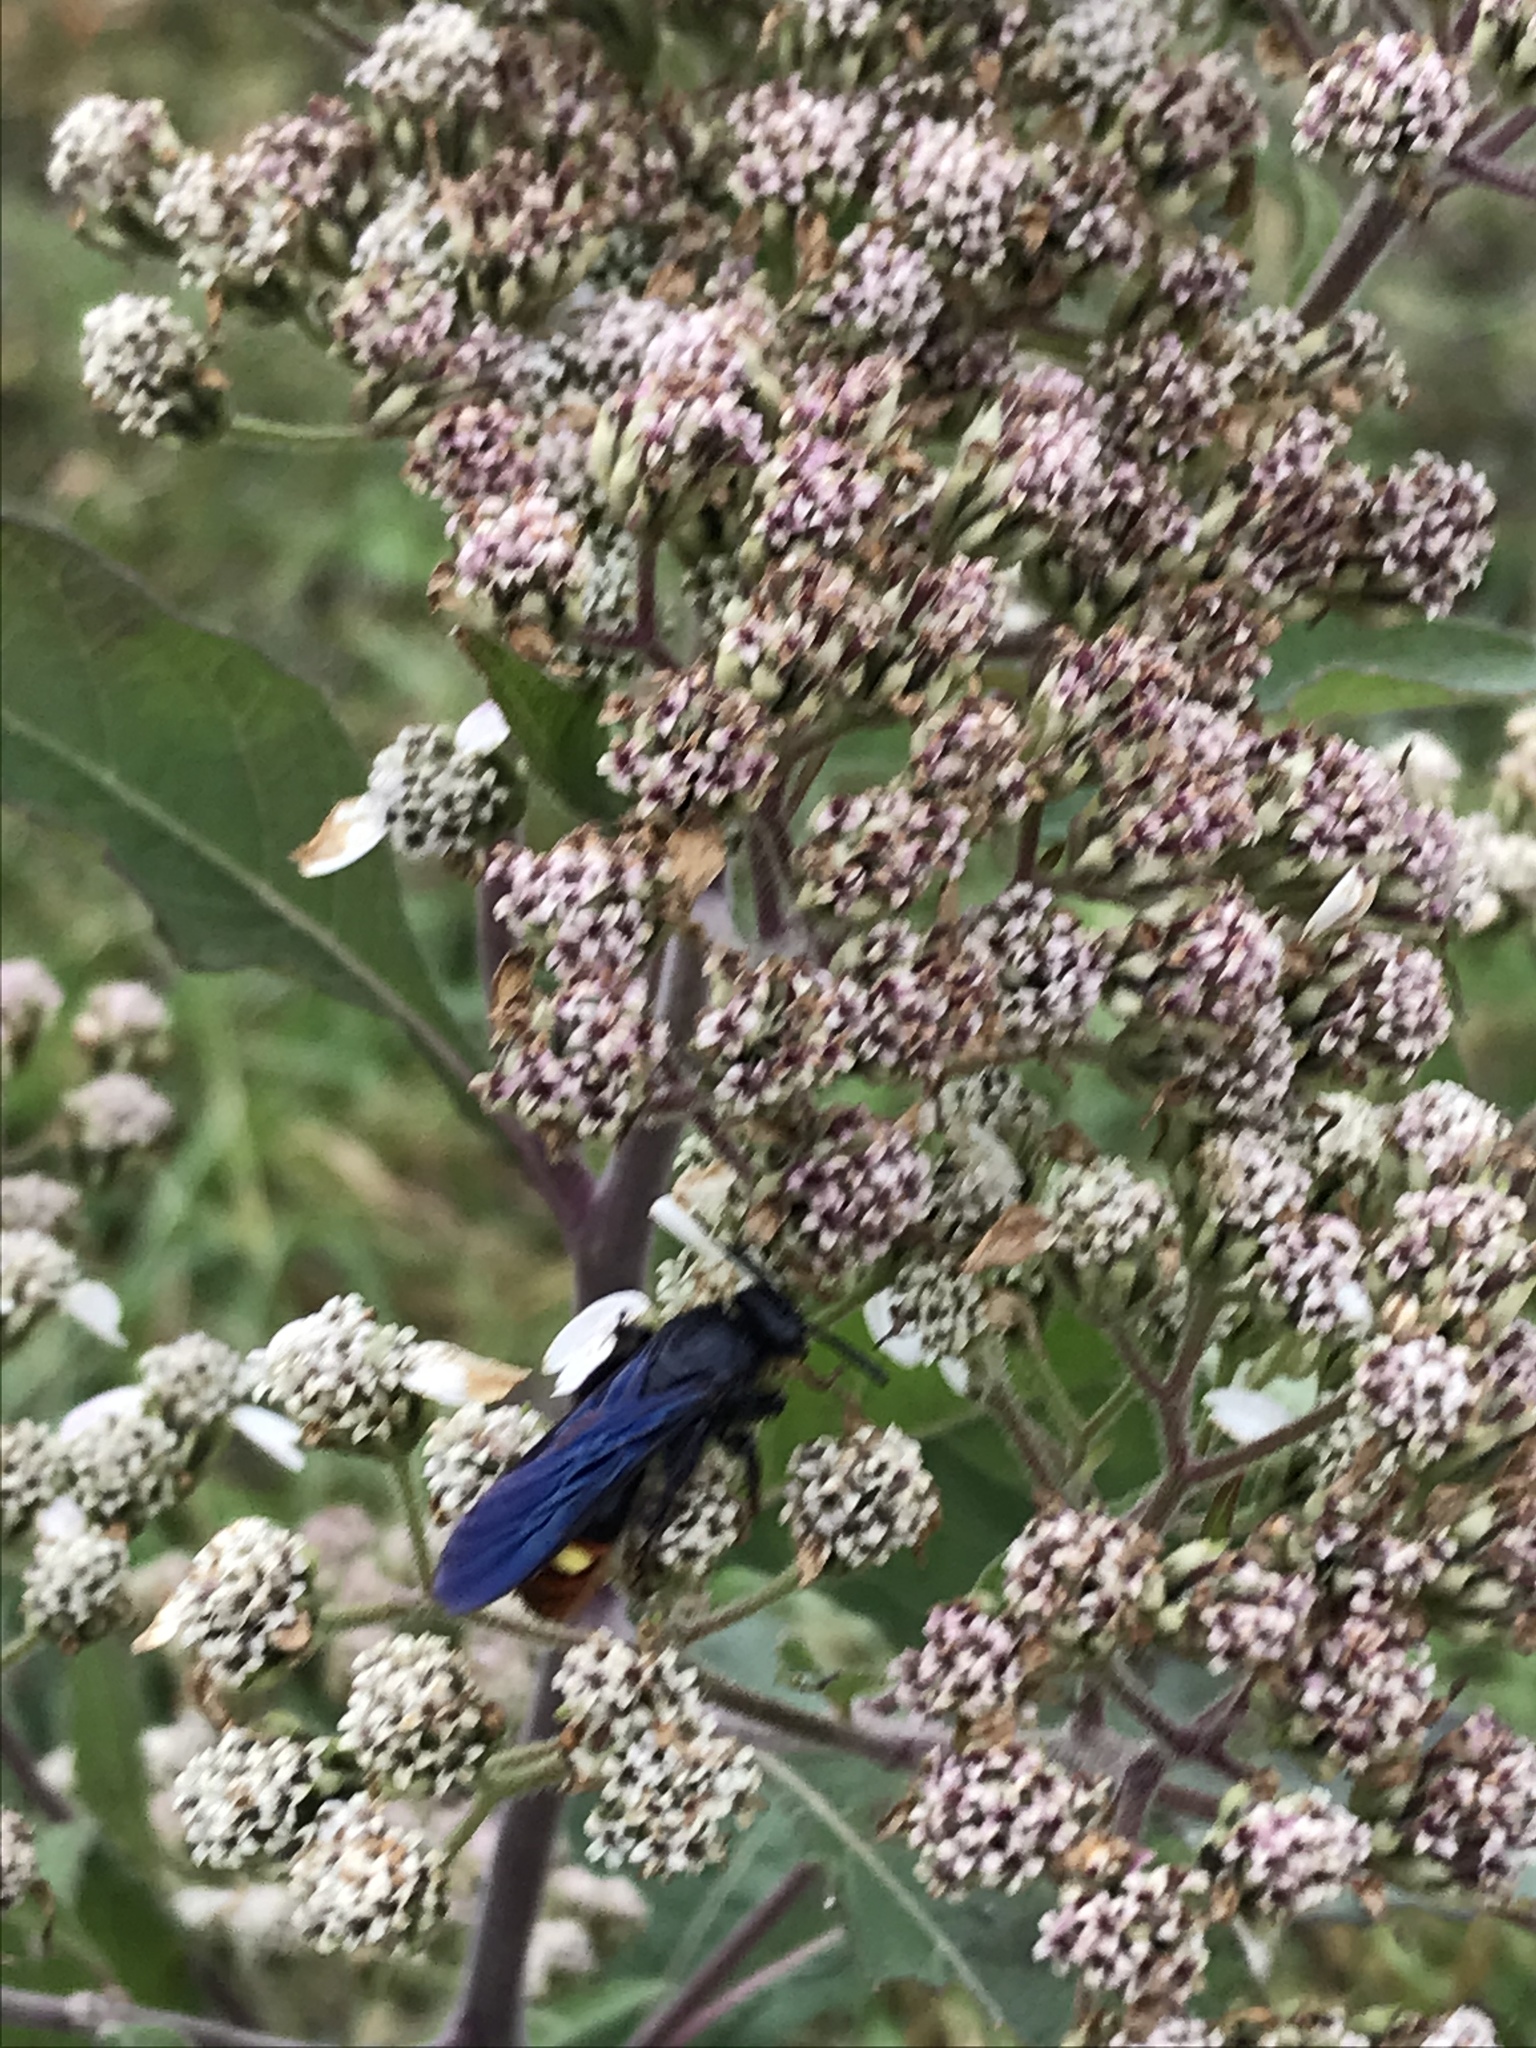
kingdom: Animalia
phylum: Arthropoda
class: Insecta
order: Hymenoptera
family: Scoliidae
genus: Scolia
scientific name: Scolia dubia
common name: Blue-winged scoliid wasp
